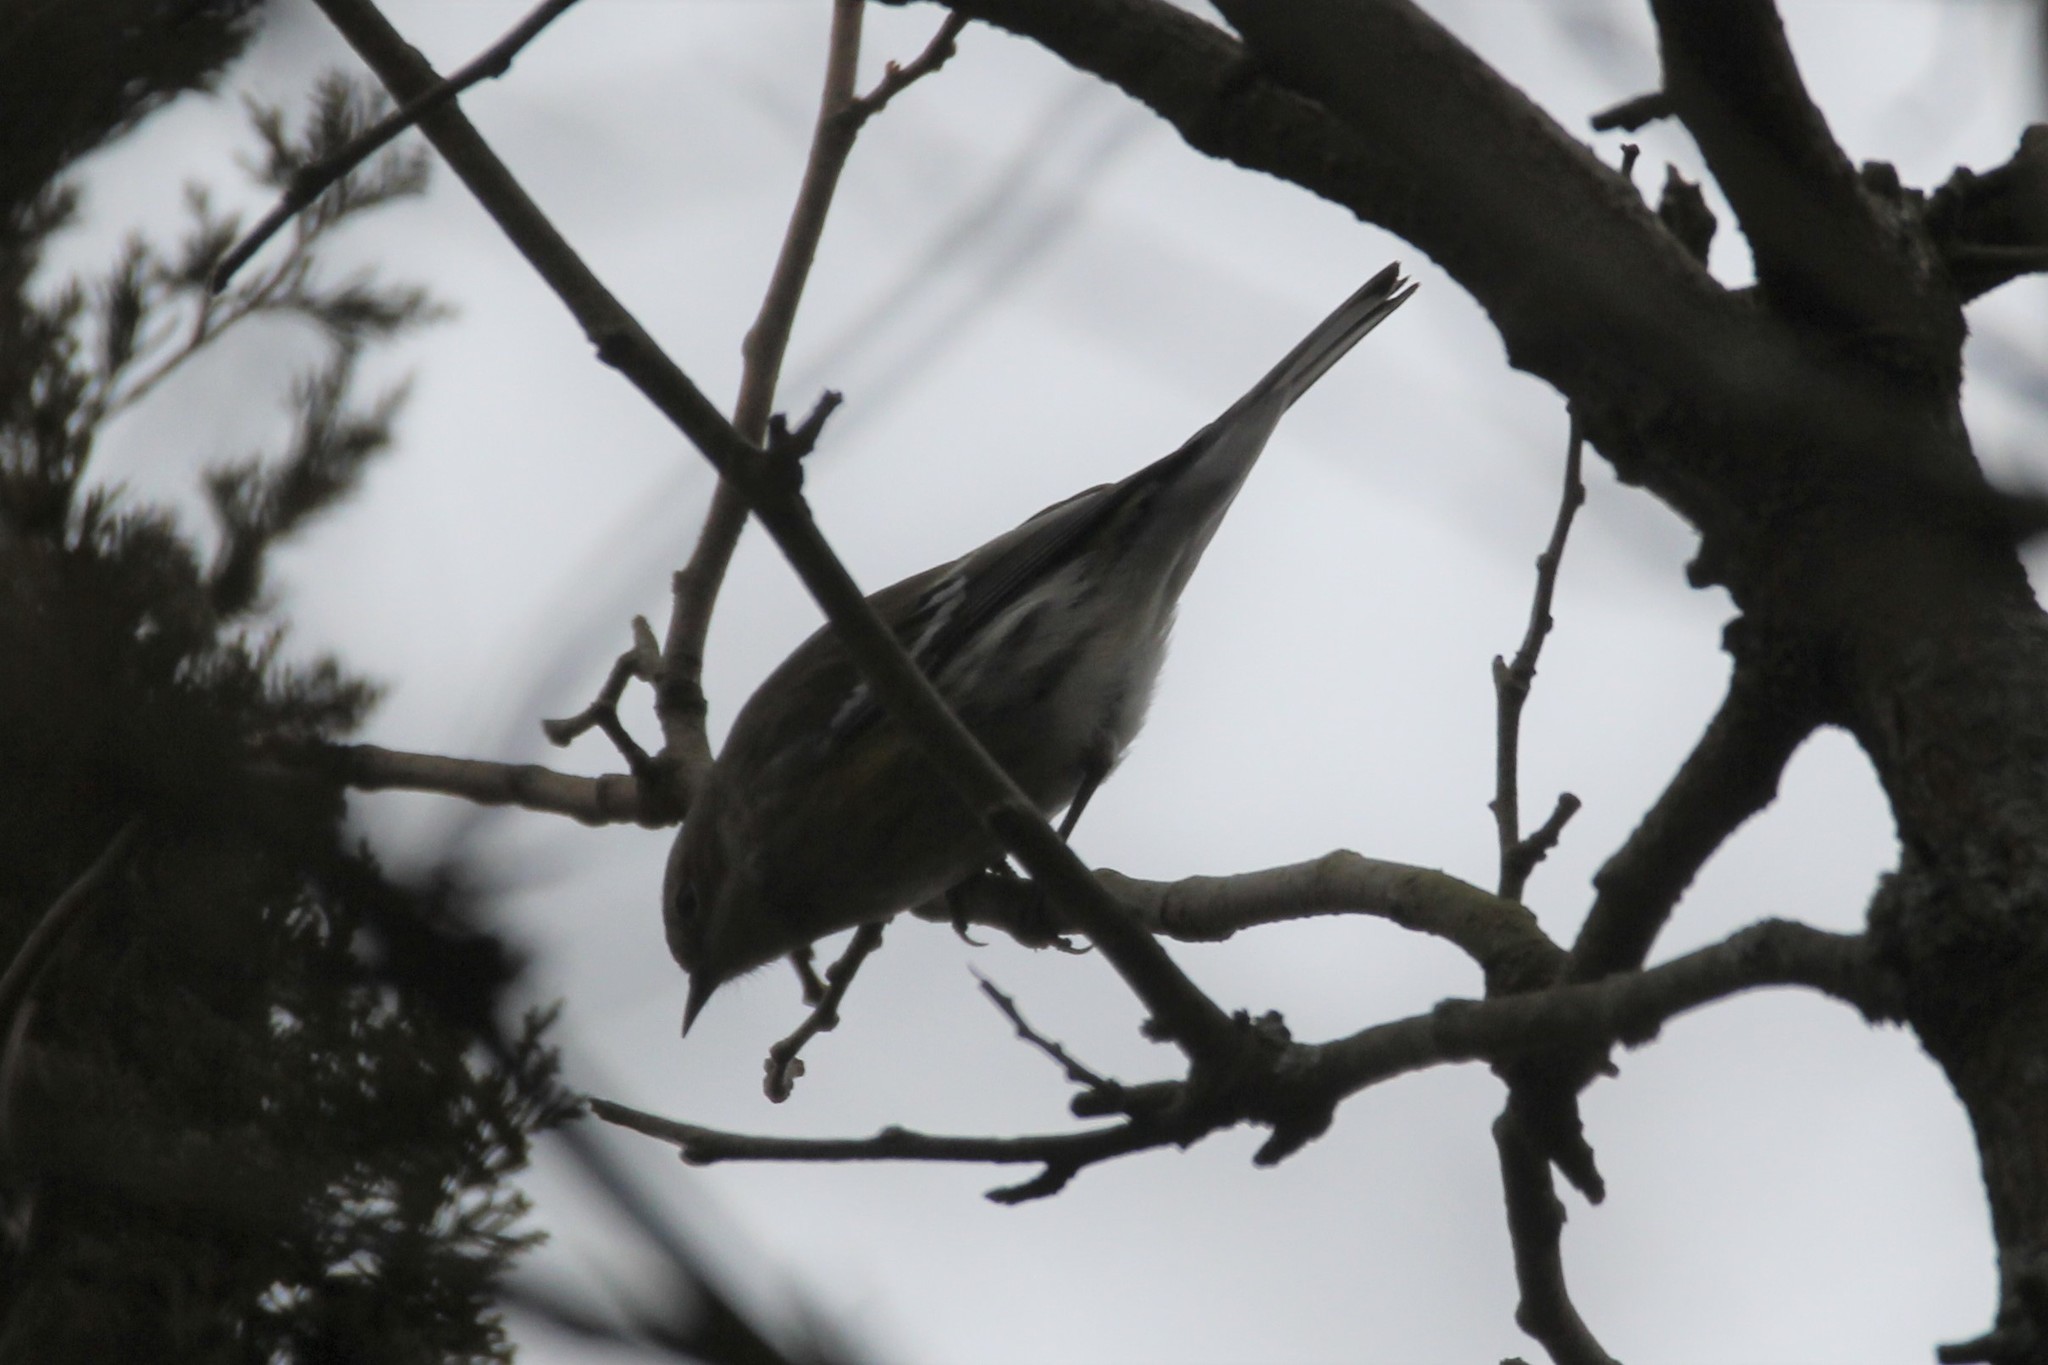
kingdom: Animalia
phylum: Chordata
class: Aves
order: Passeriformes
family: Parulidae
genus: Setophaga
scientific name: Setophaga coronata
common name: Myrtle warbler
